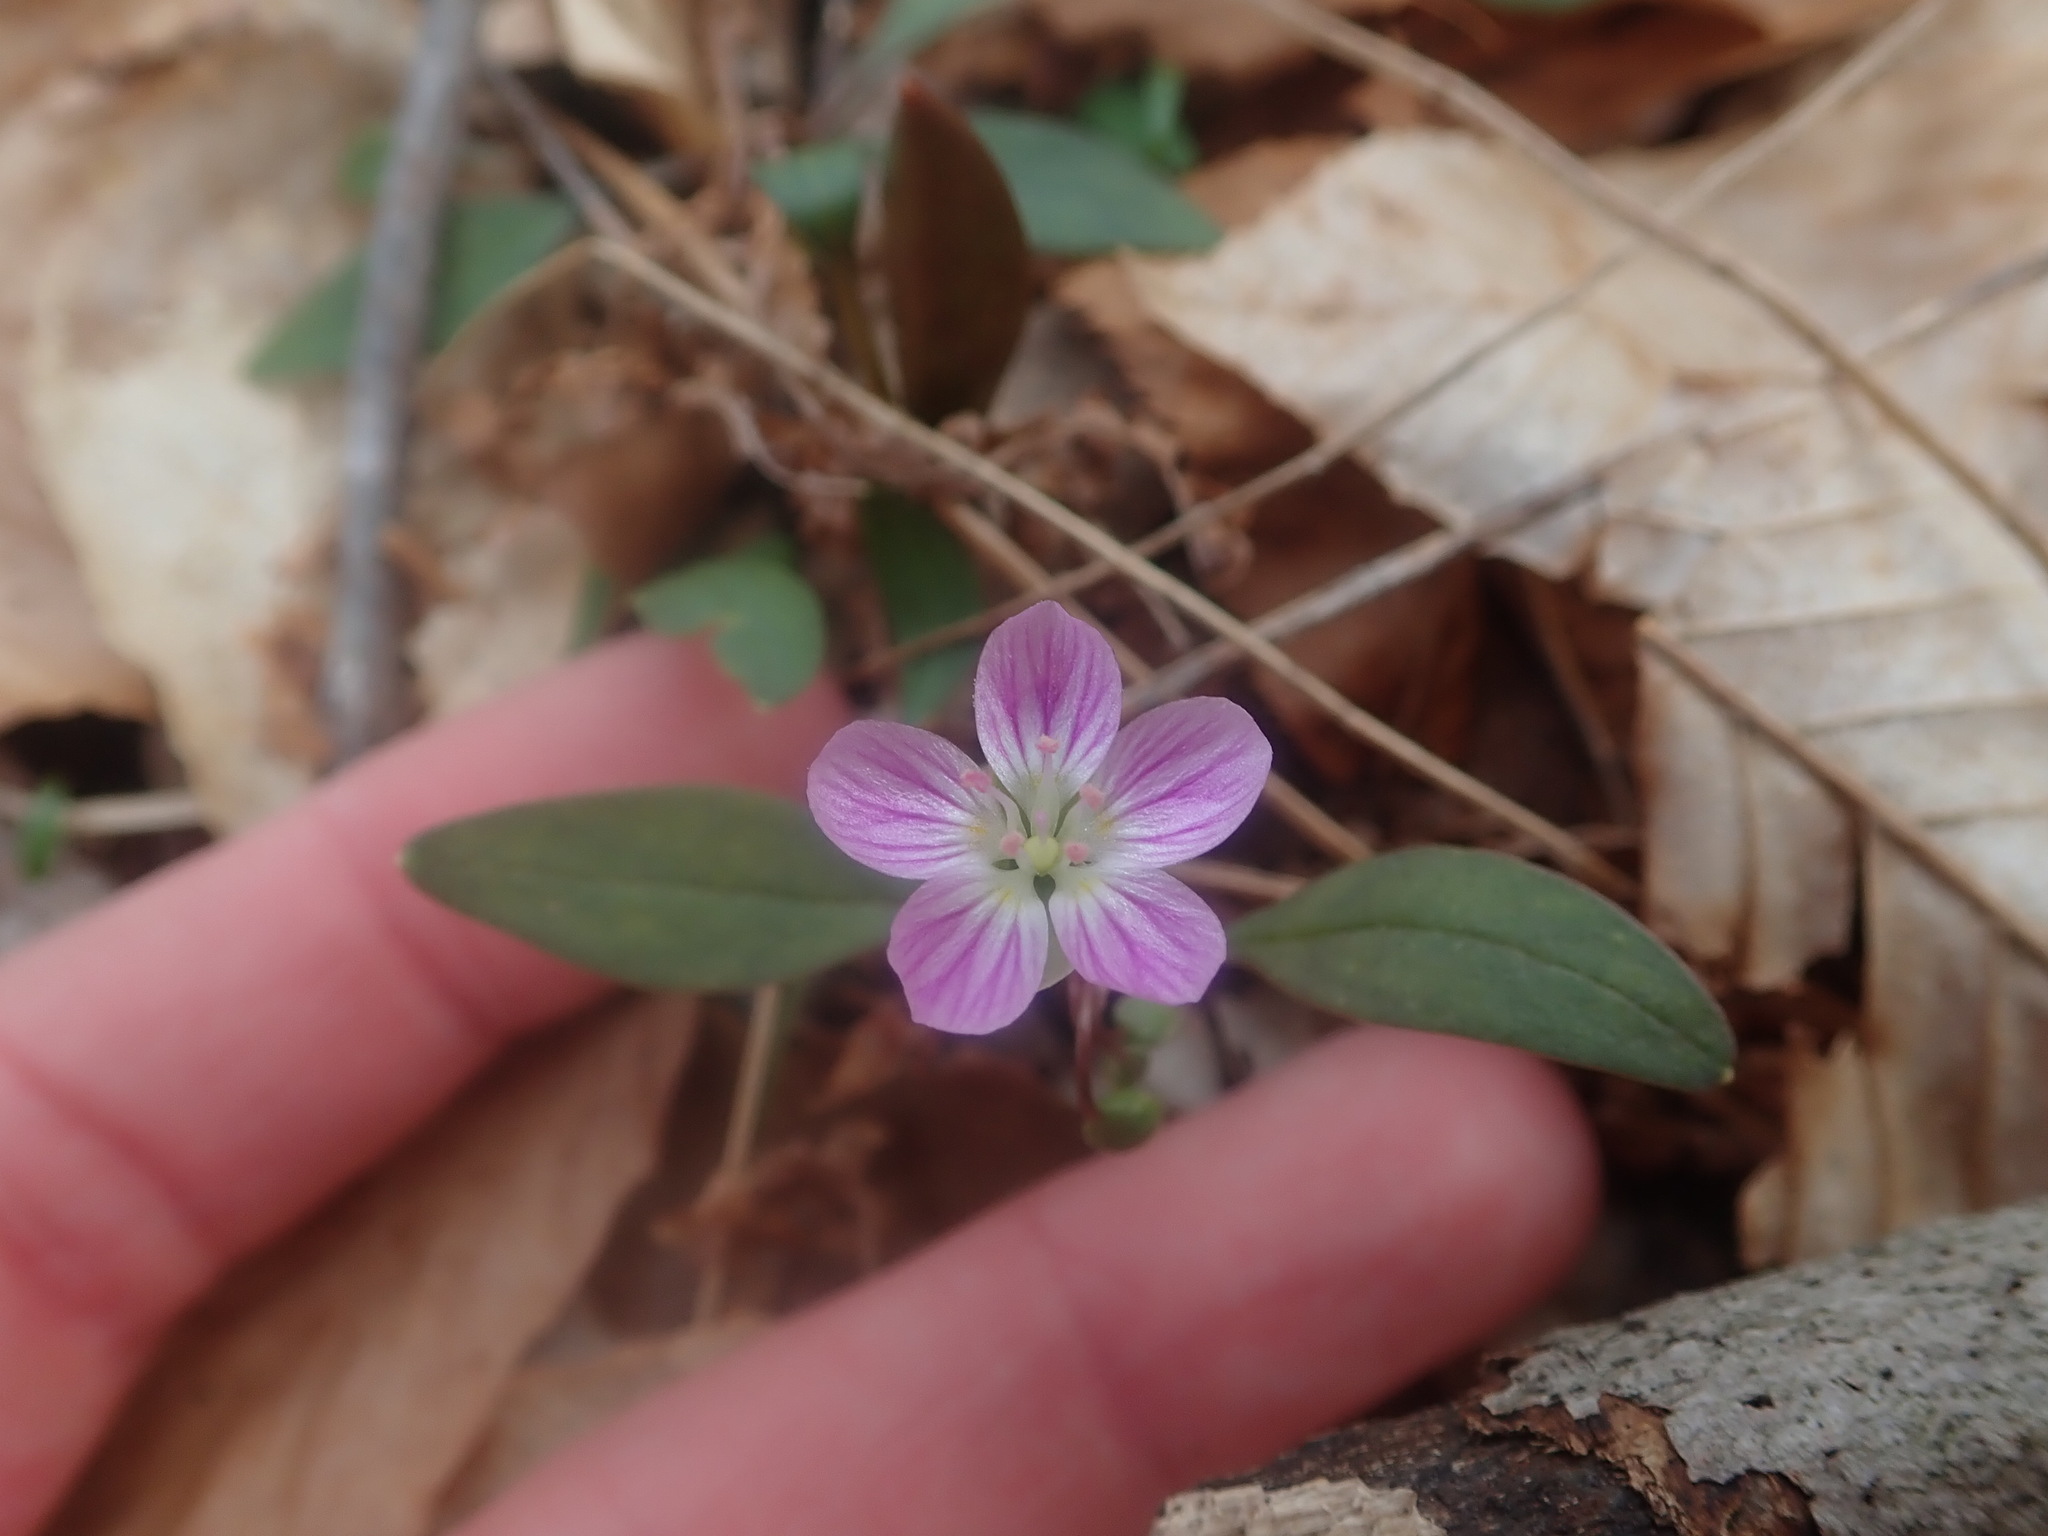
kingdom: Plantae
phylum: Tracheophyta
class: Magnoliopsida
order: Caryophyllales
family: Montiaceae
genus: Claytonia
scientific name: Claytonia caroliniana
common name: Carolina spring beauty
